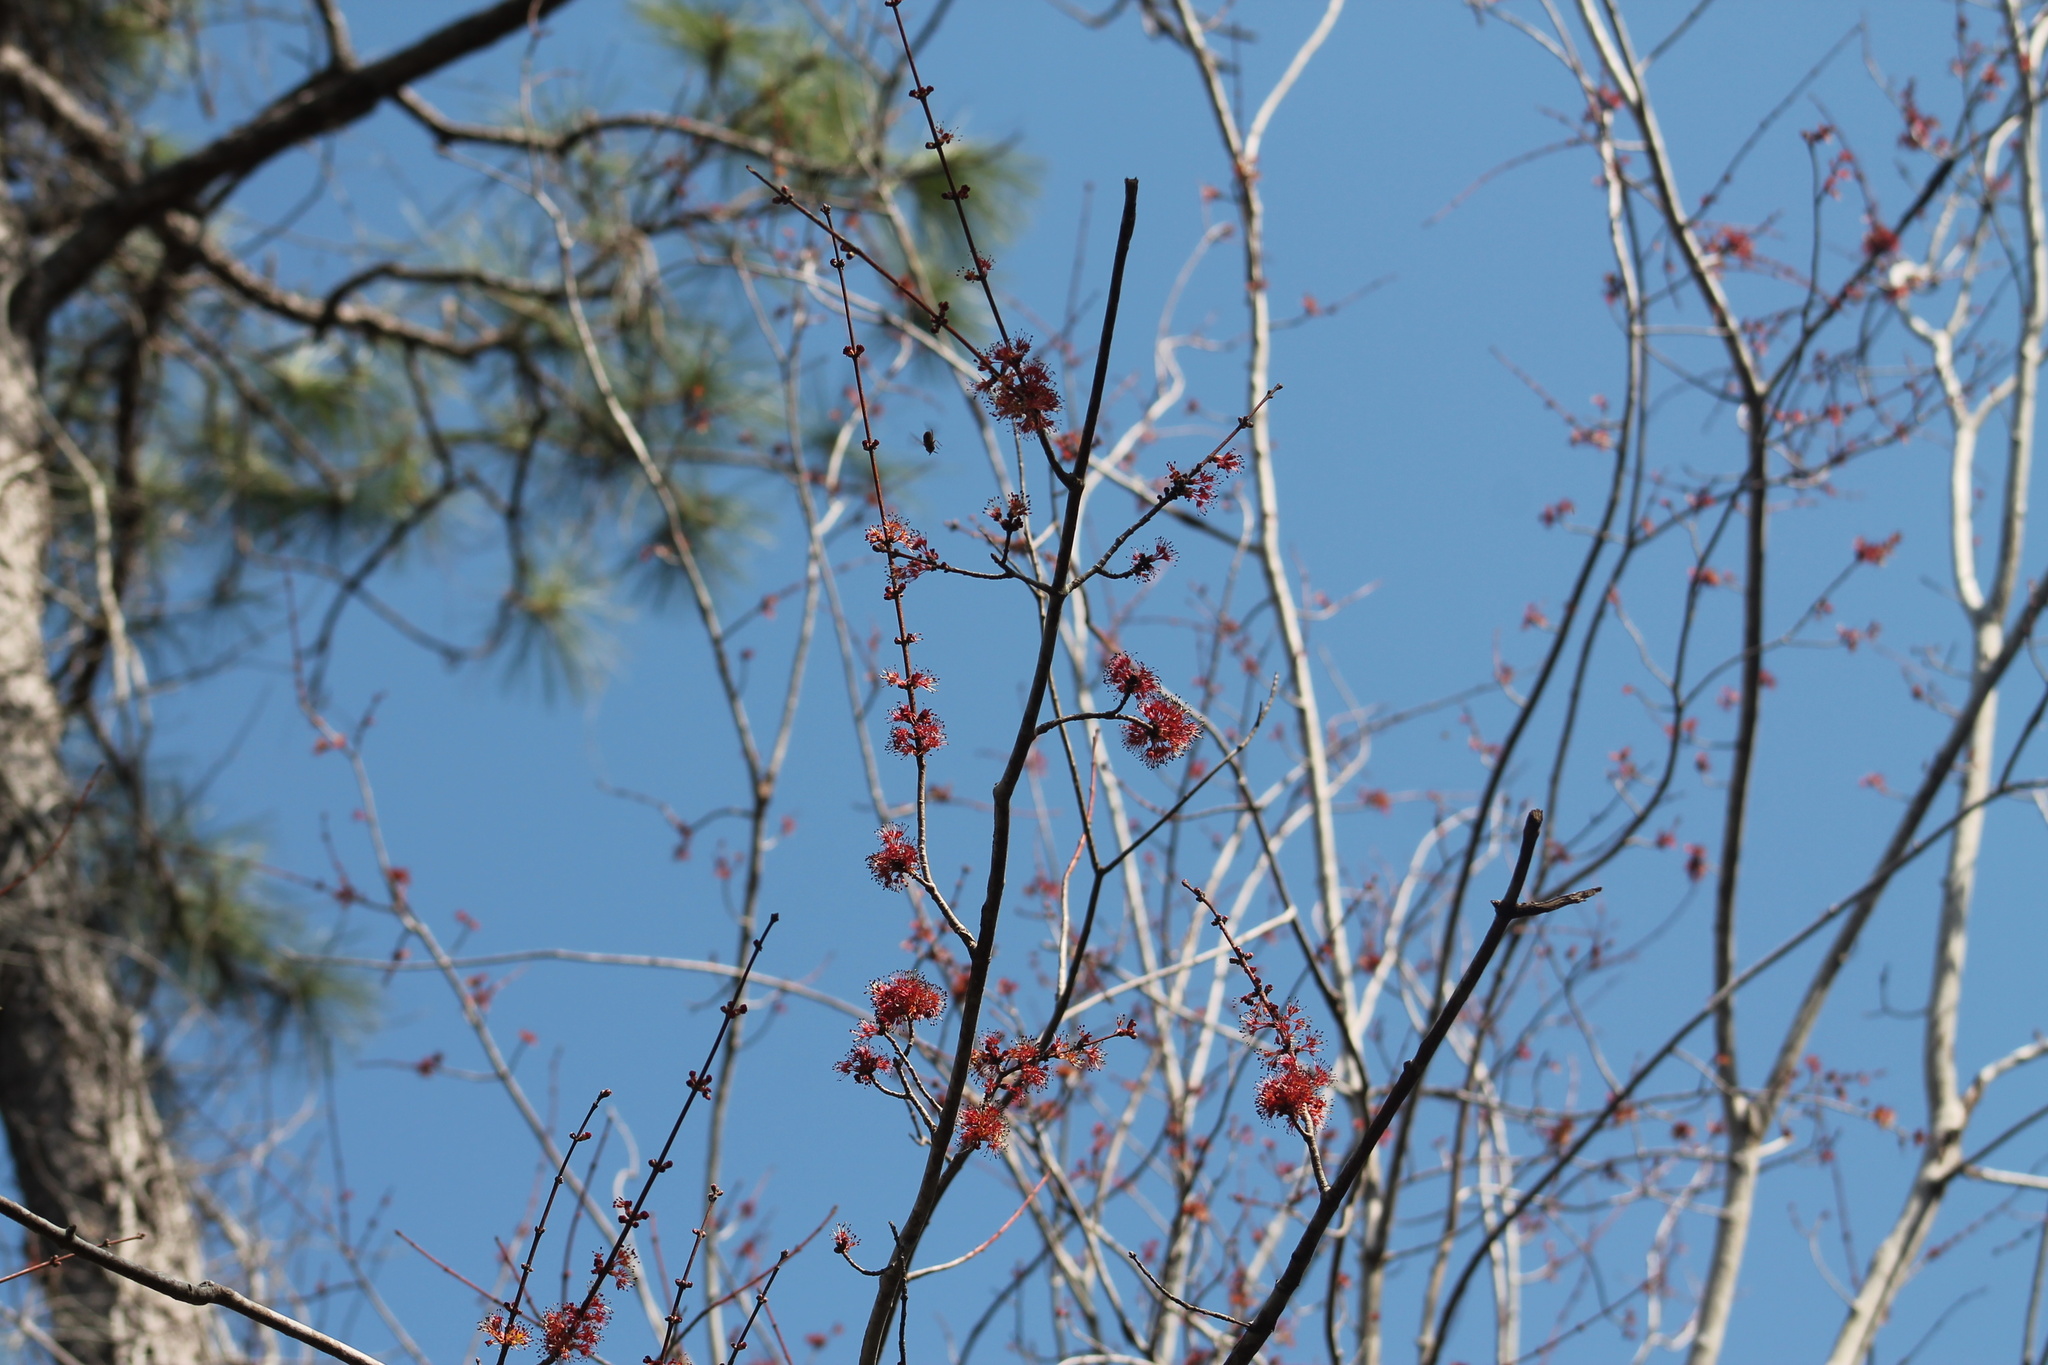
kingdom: Plantae
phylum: Tracheophyta
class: Magnoliopsida
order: Sapindales
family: Sapindaceae
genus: Acer
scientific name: Acer rubrum
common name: Red maple
